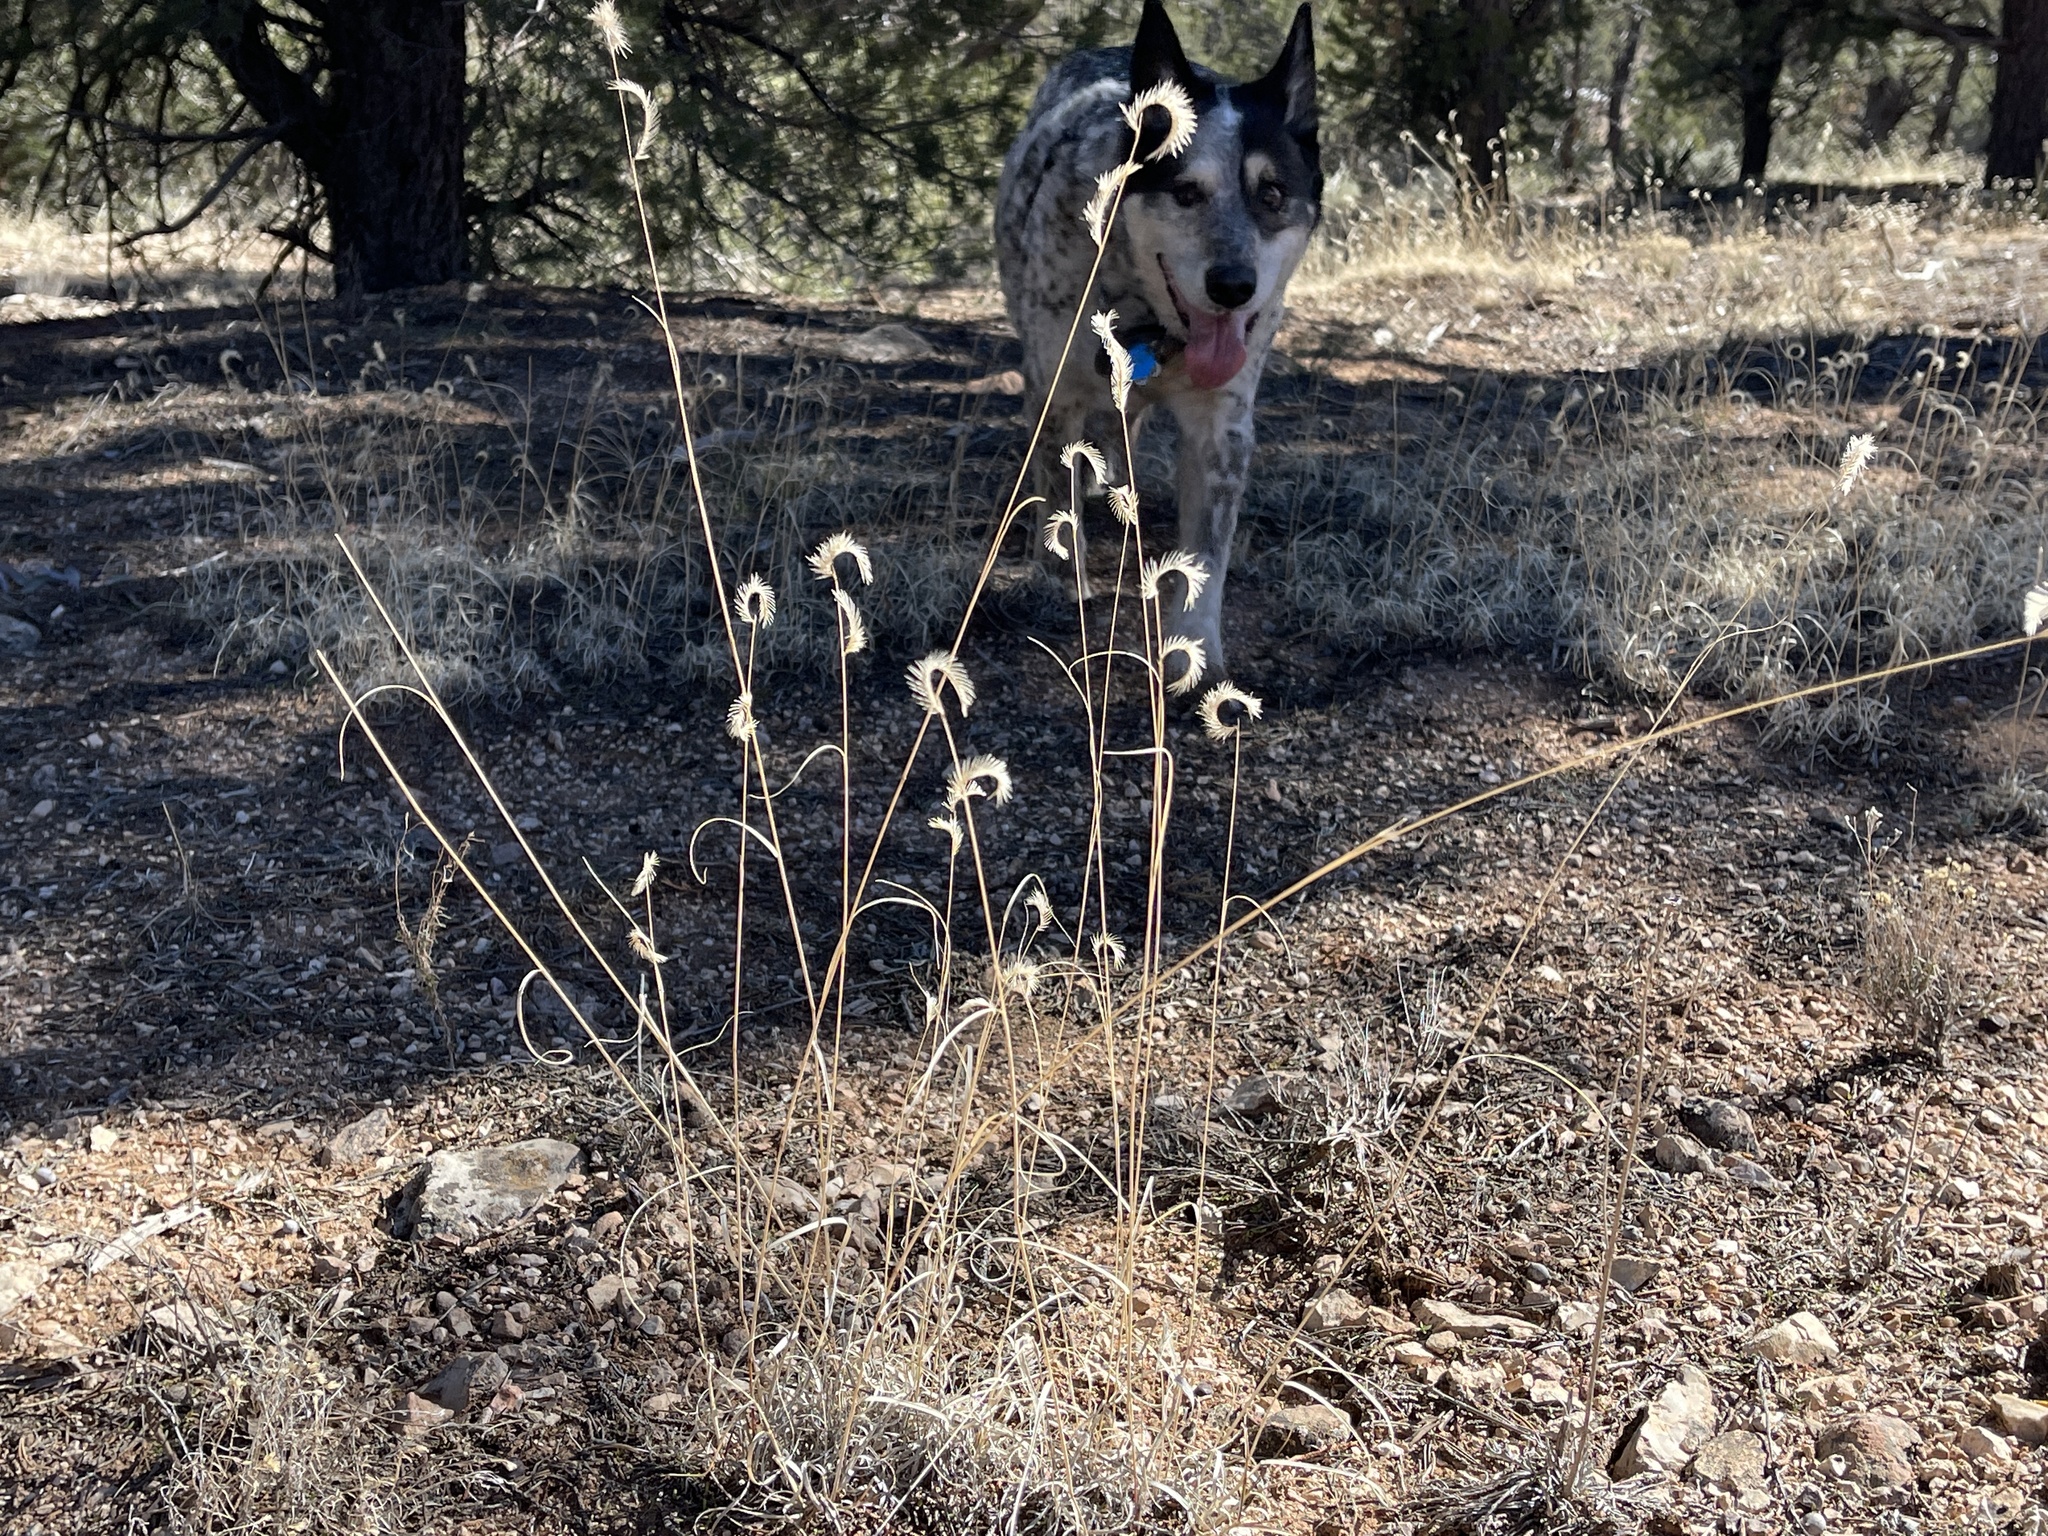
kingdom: Plantae
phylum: Tracheophyta
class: Liliopsida
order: Poales
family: Poaceae
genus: Bouteloua
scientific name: Bouteloua gracilis
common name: Blue grama
